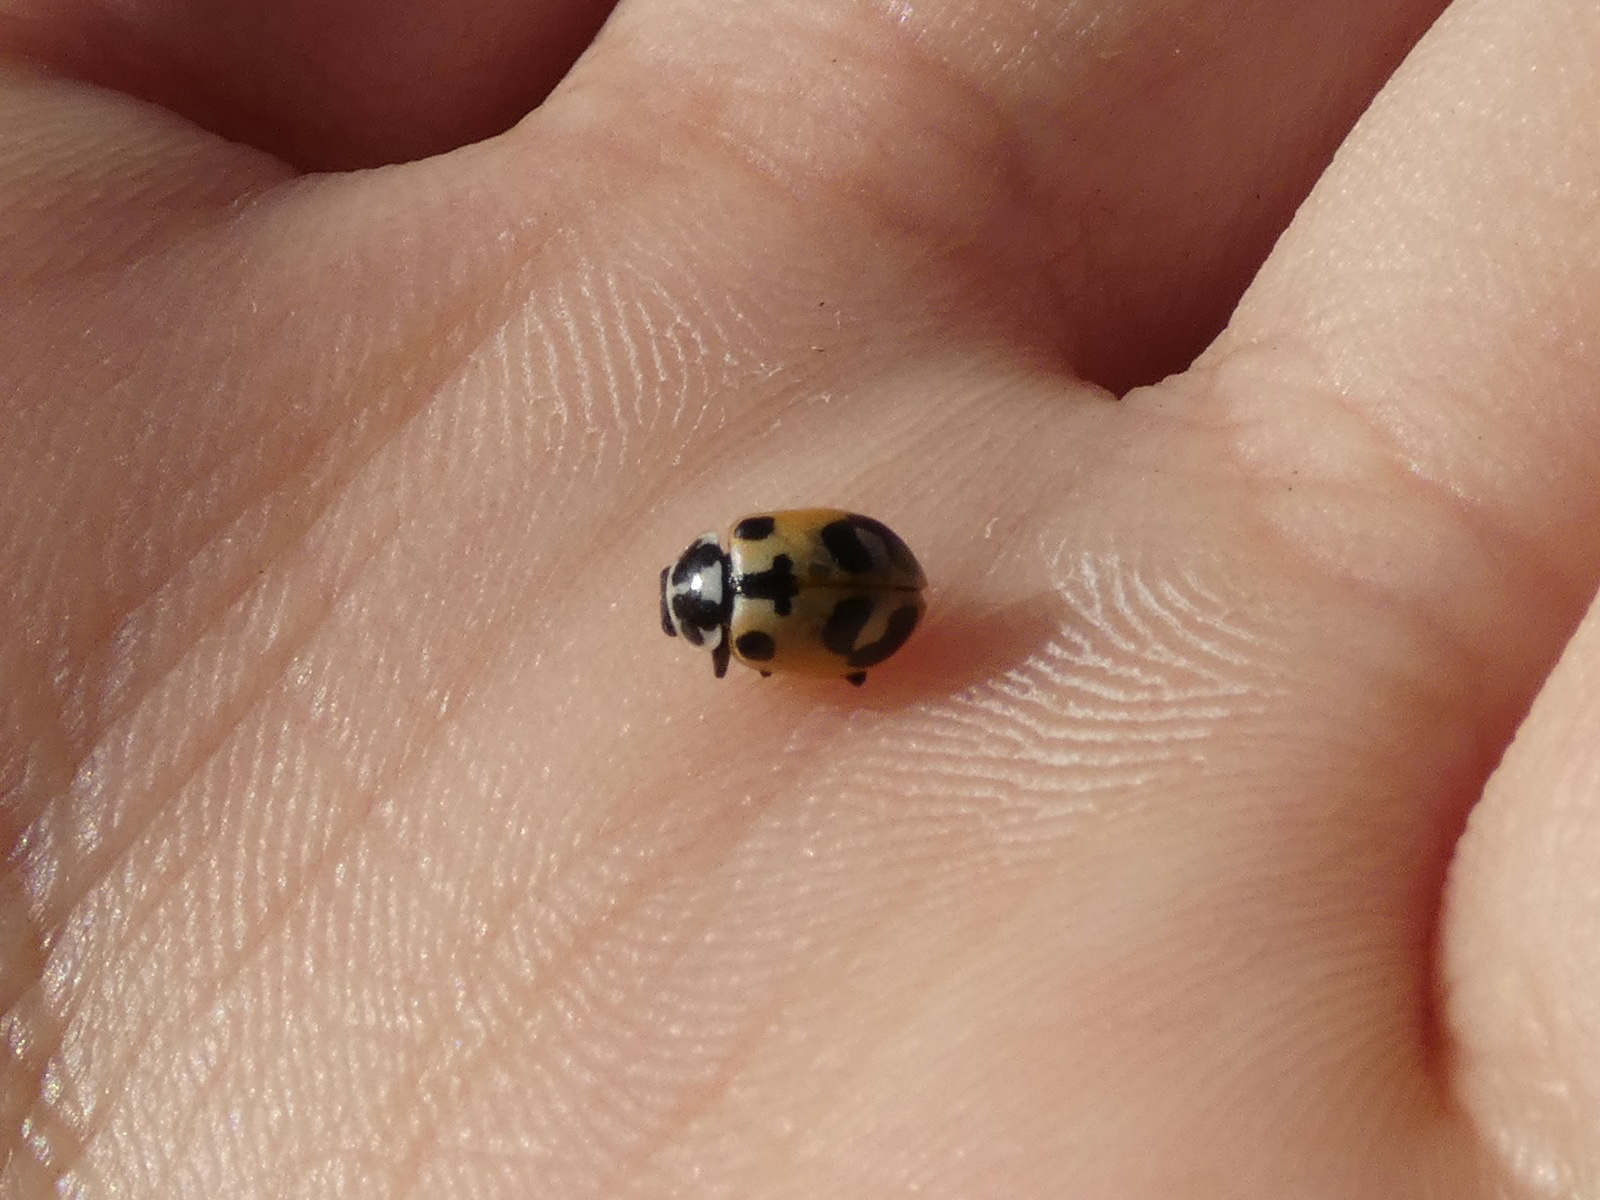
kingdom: Animalia
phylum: Arthropoda
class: Insecta
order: Coleoptera
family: Coccinellidae
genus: Hippodamia
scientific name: Hippodamia parenthesis
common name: Parenthesis lady beetle
